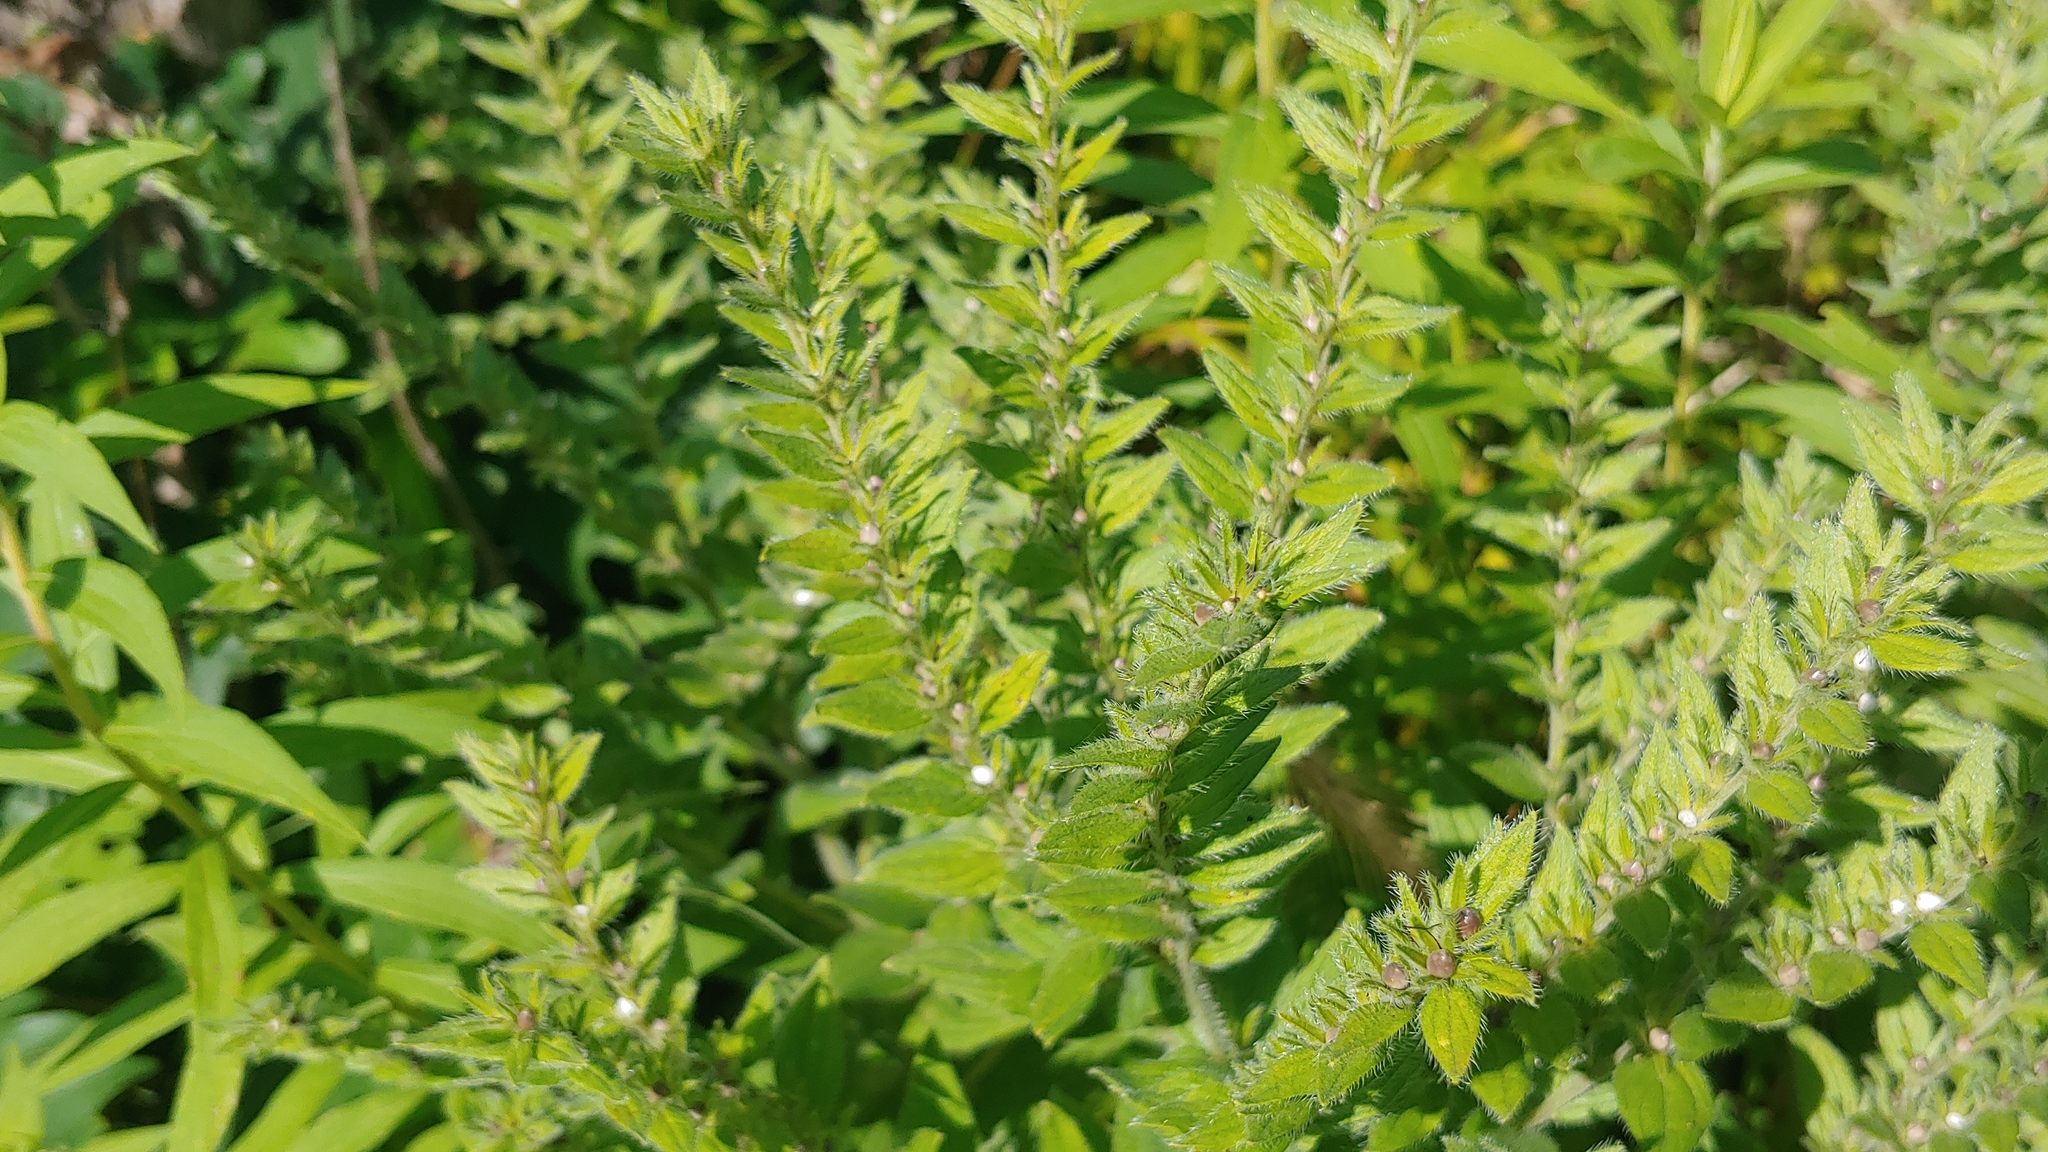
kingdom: Plantae
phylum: Tracheophyta
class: Magnoliopsida
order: Boraginales
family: Boraginaceae
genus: Lithospermum
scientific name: Lithospermum parviflorum
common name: Hairy false gromwell
